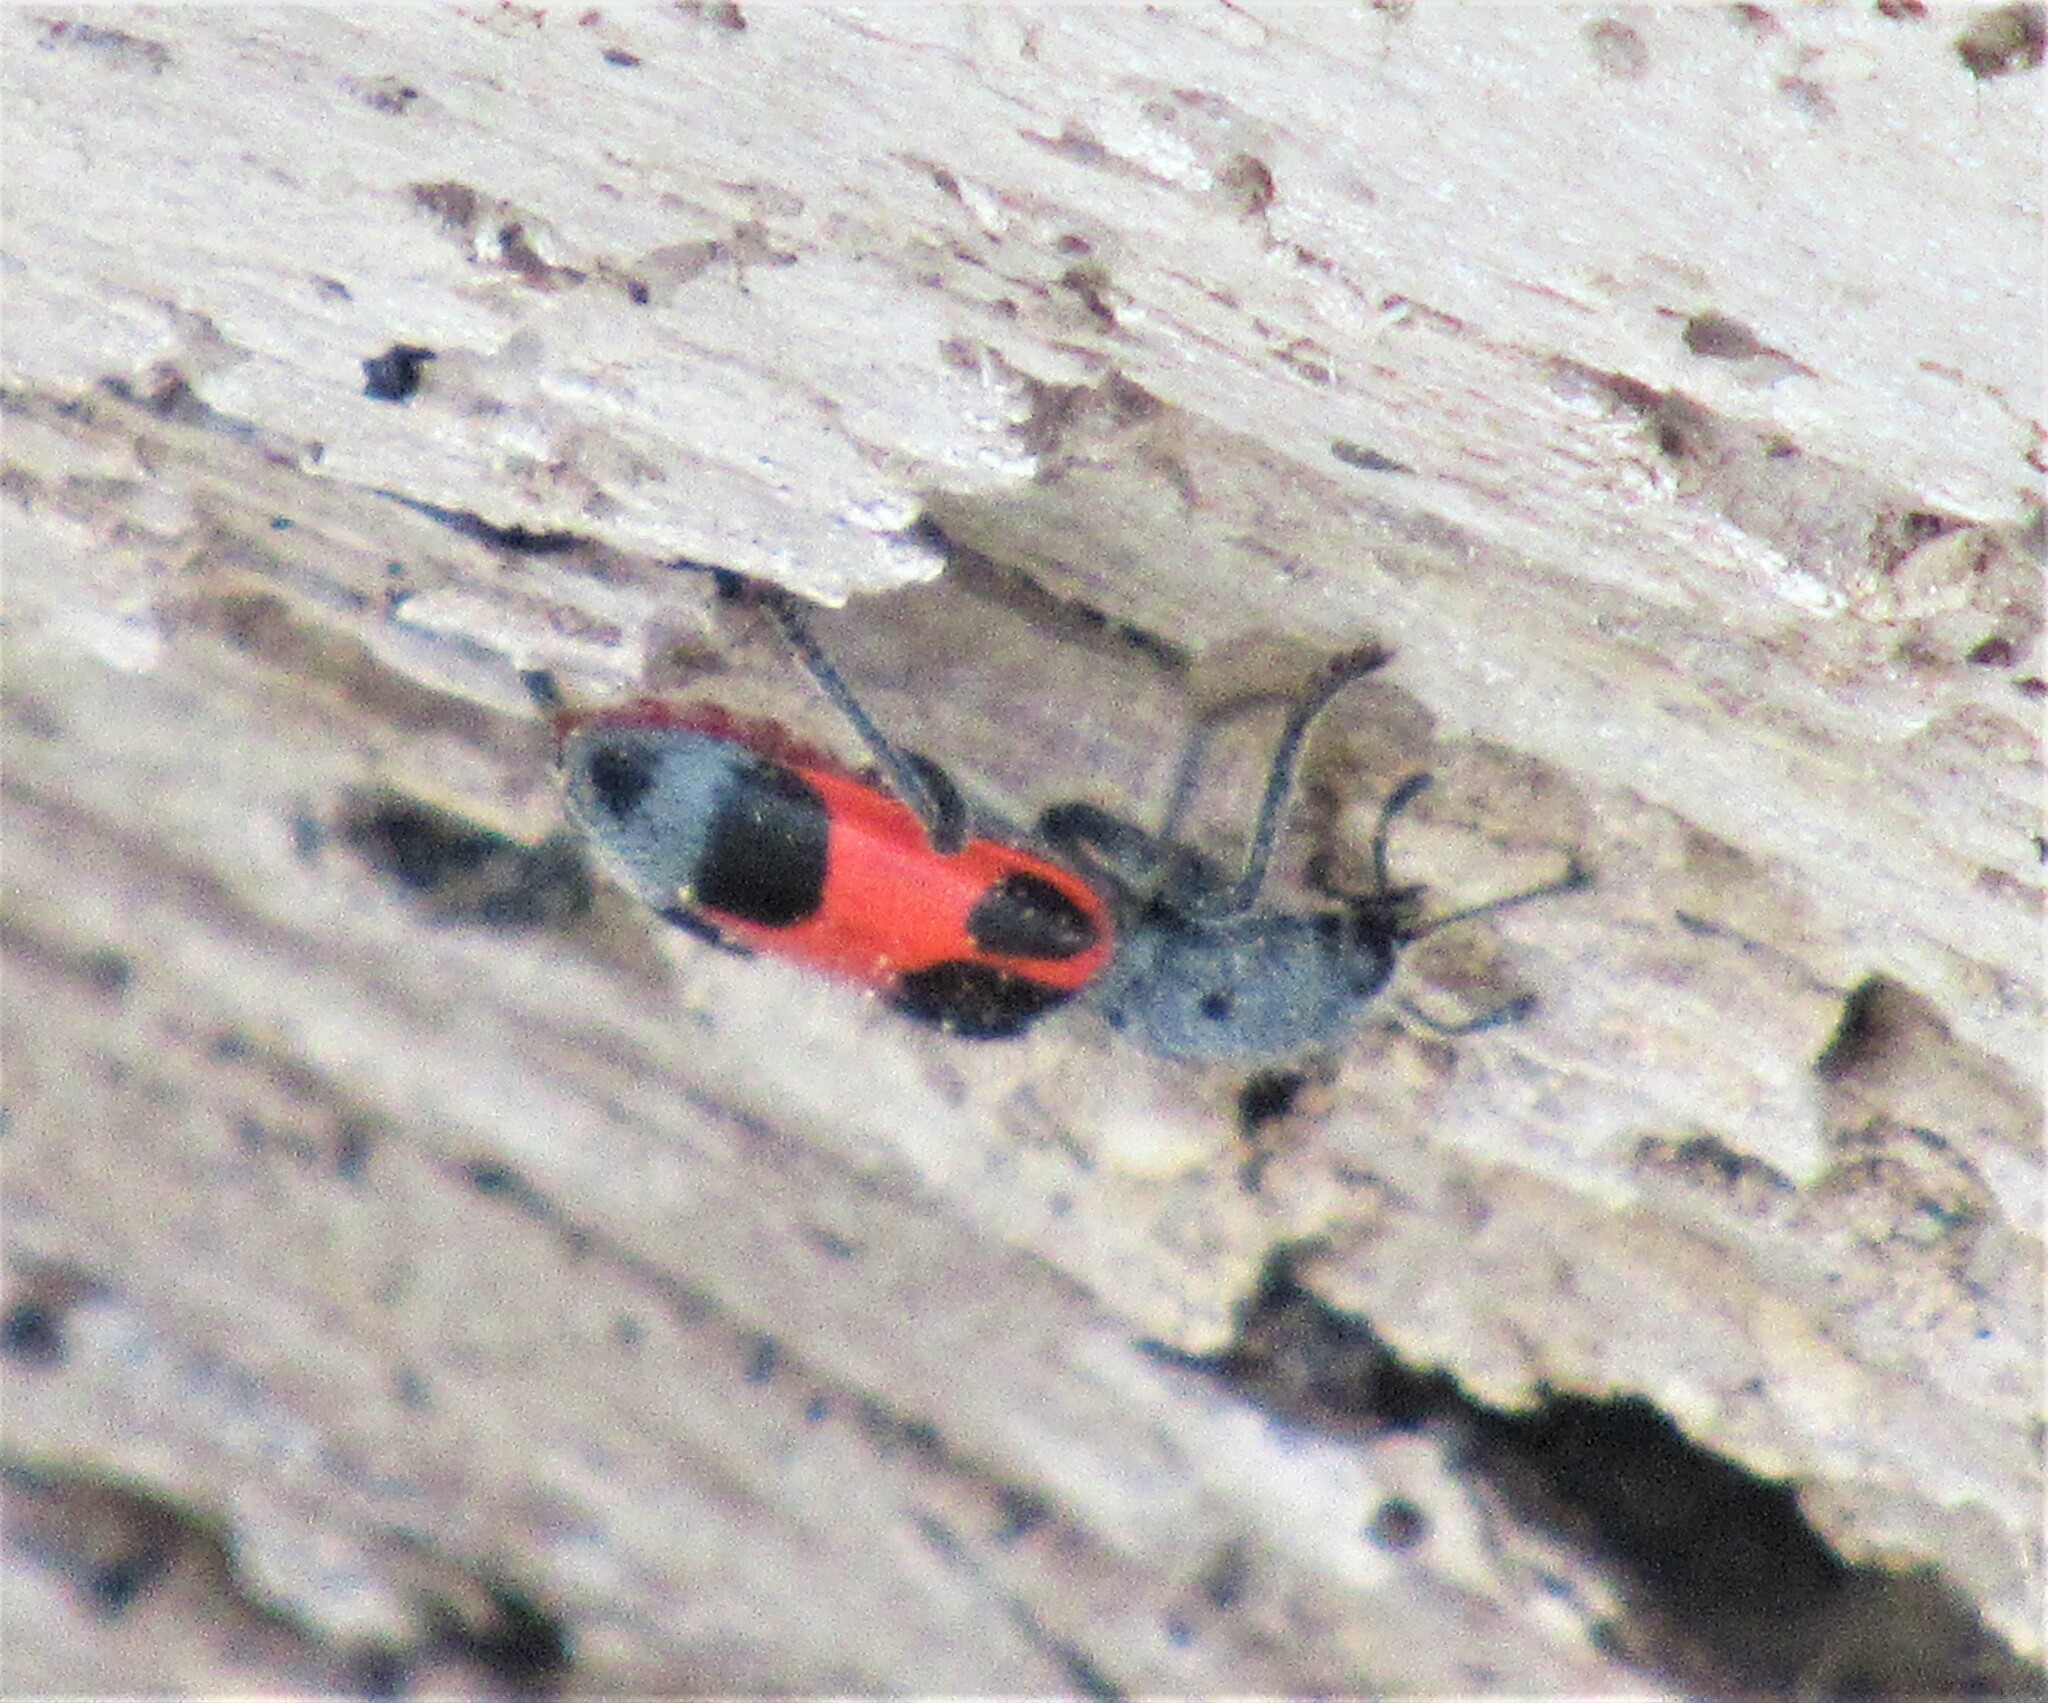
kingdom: Animalia
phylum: Arthropoda
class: Insecta
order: Coleoptera
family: Cleridae
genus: Enoclerus
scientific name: Enoclerus eximius
